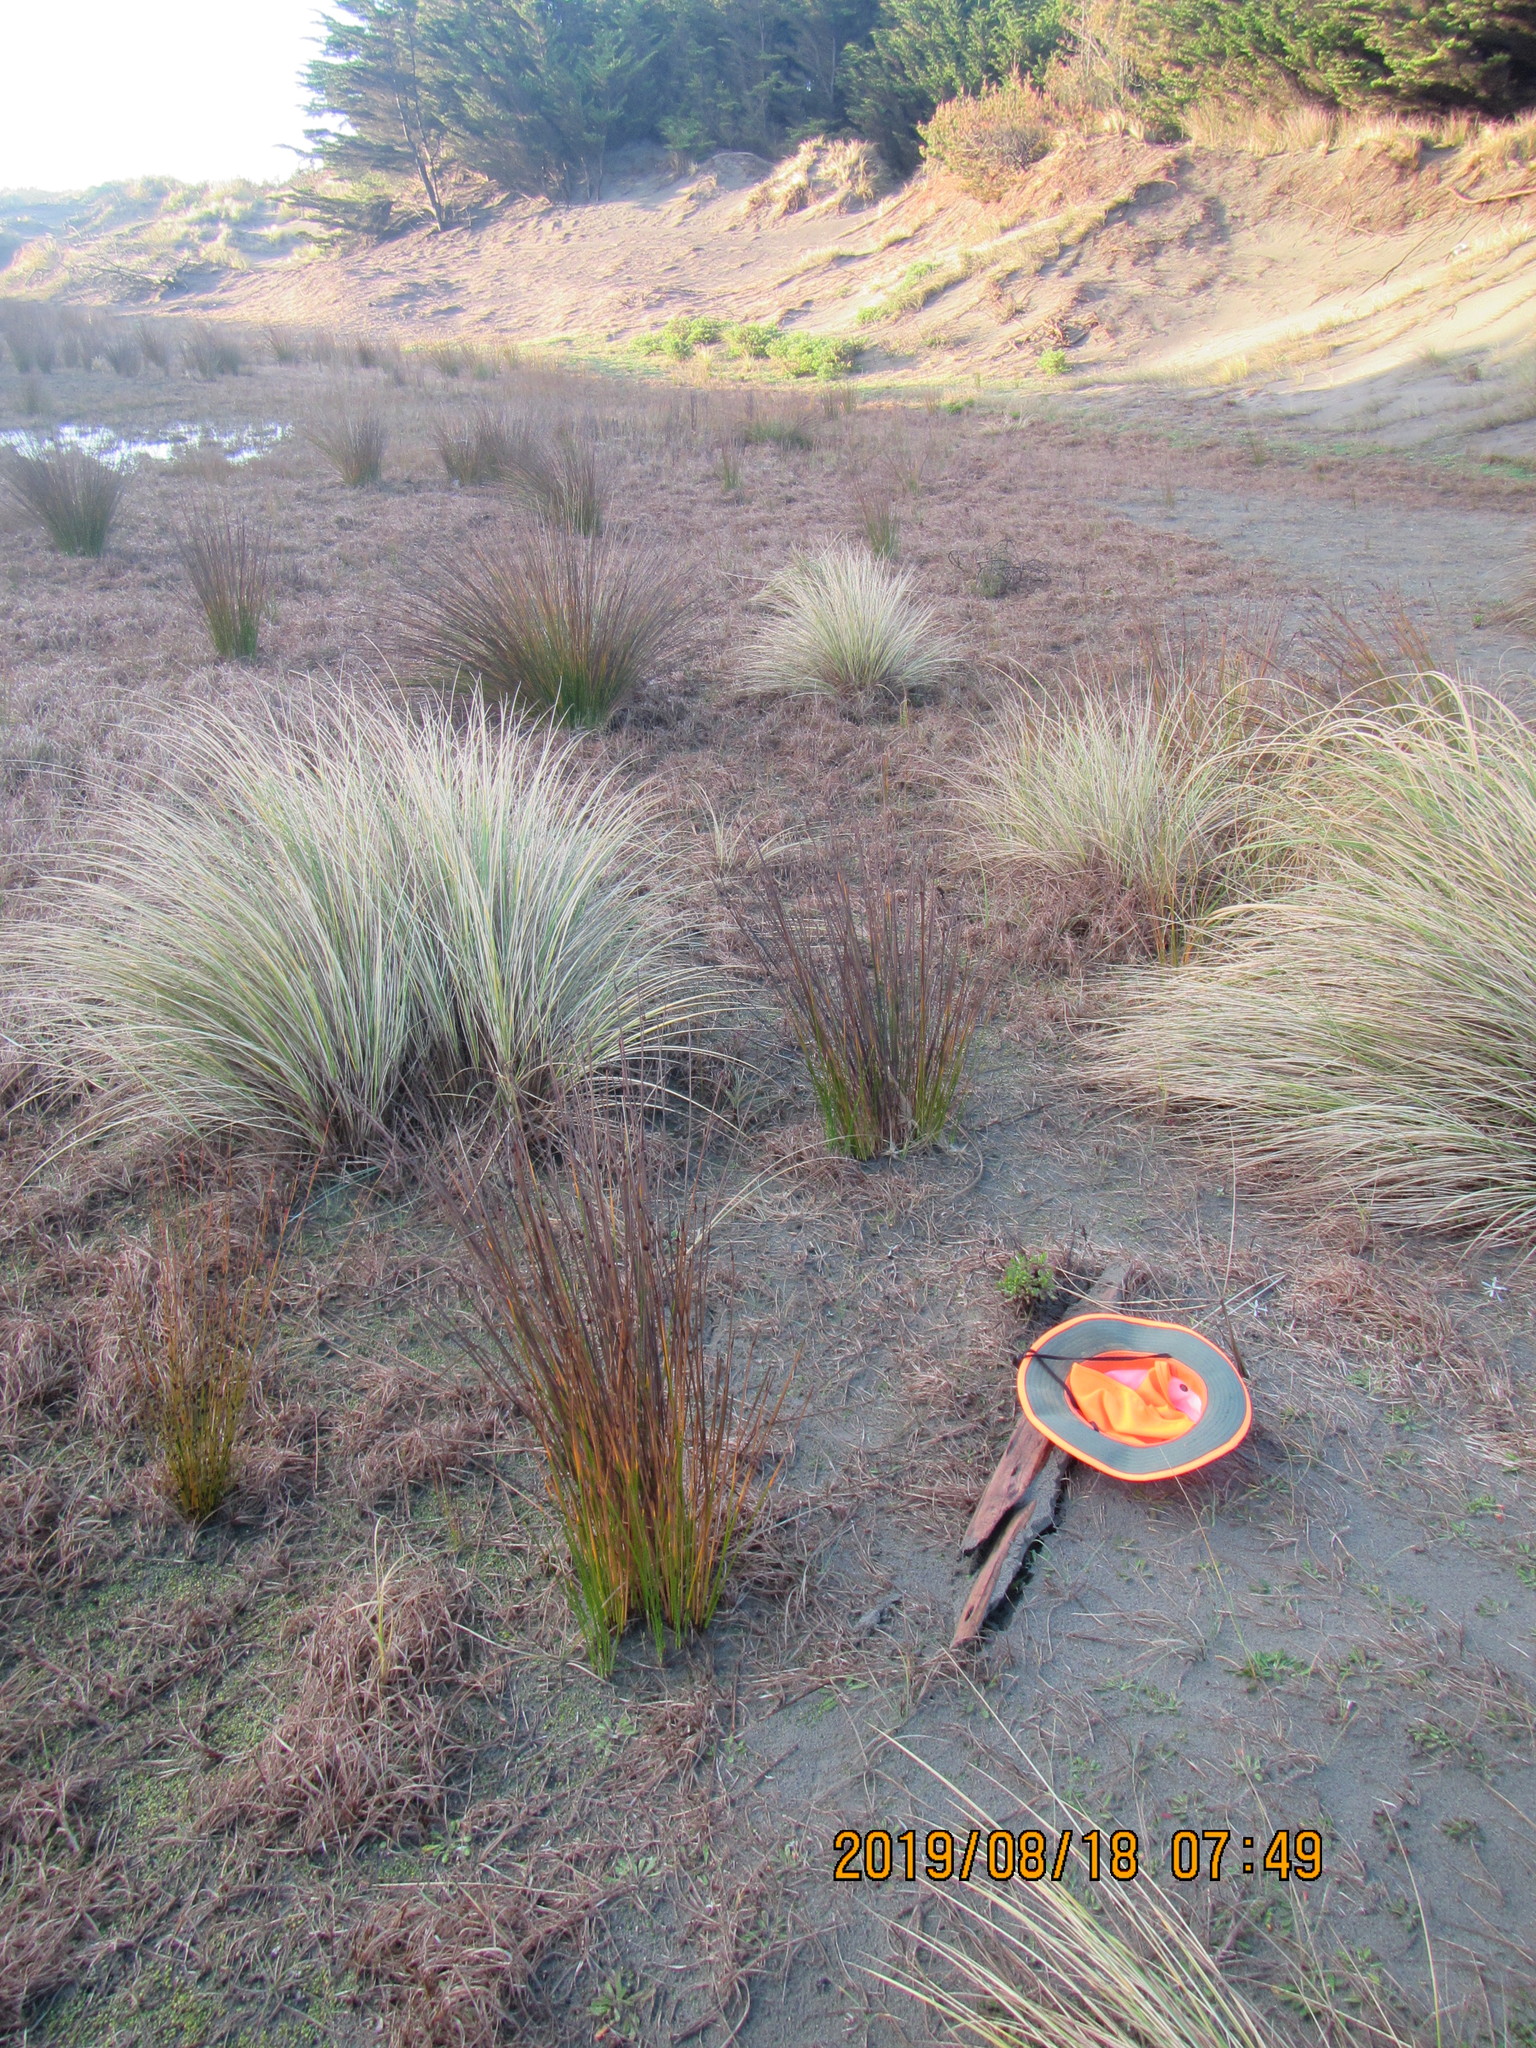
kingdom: Animalia
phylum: Arthropoda
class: Arachnida
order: Araneae
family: Theridiidae
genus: Steatoda
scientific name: Steatoda capensis
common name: Cobweb weaver
